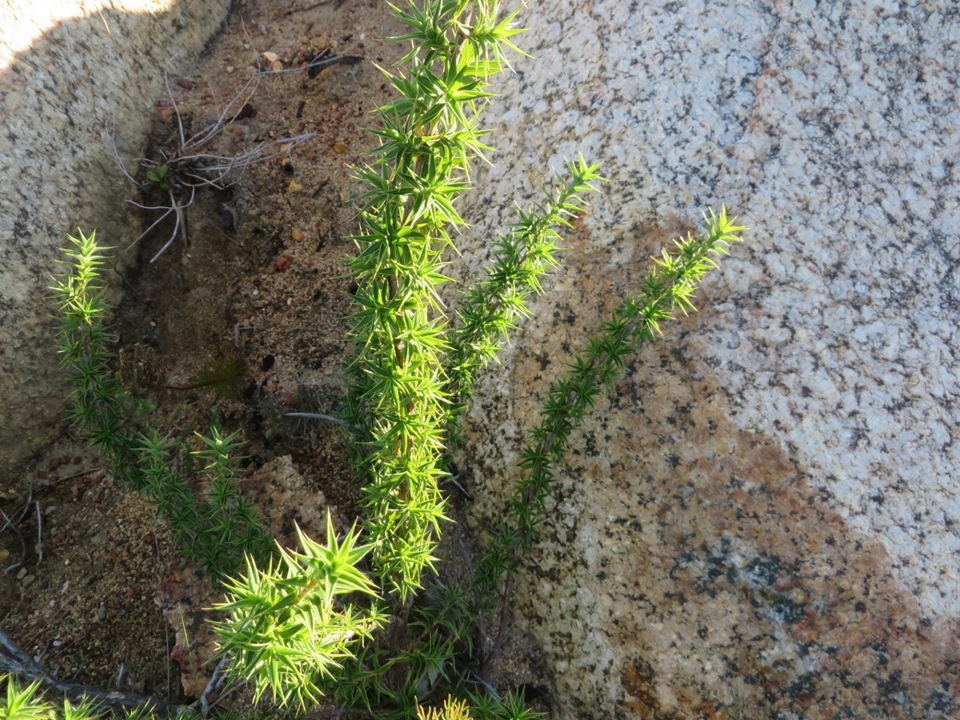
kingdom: Plantae
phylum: Tracheophyta
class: Magnoliopsida
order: Rosales
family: Rosaceae
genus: Cliffortia
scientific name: Cliffortia ruscifolia
